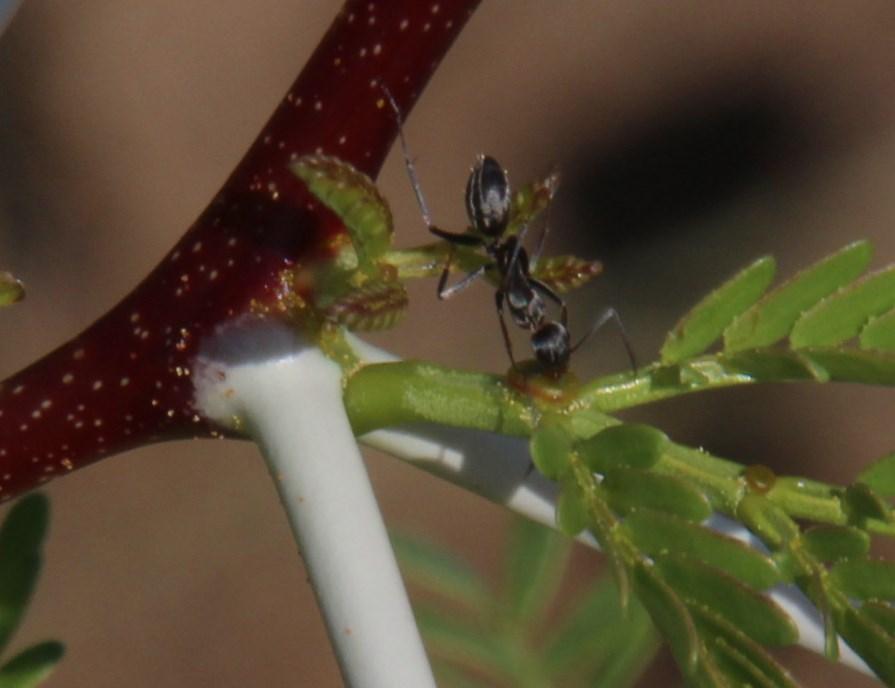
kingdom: Animalia
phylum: Arthropoda
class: Insecta
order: Hymenoptera
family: Formicidae
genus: Camponotus
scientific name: Camponotus vestitus
